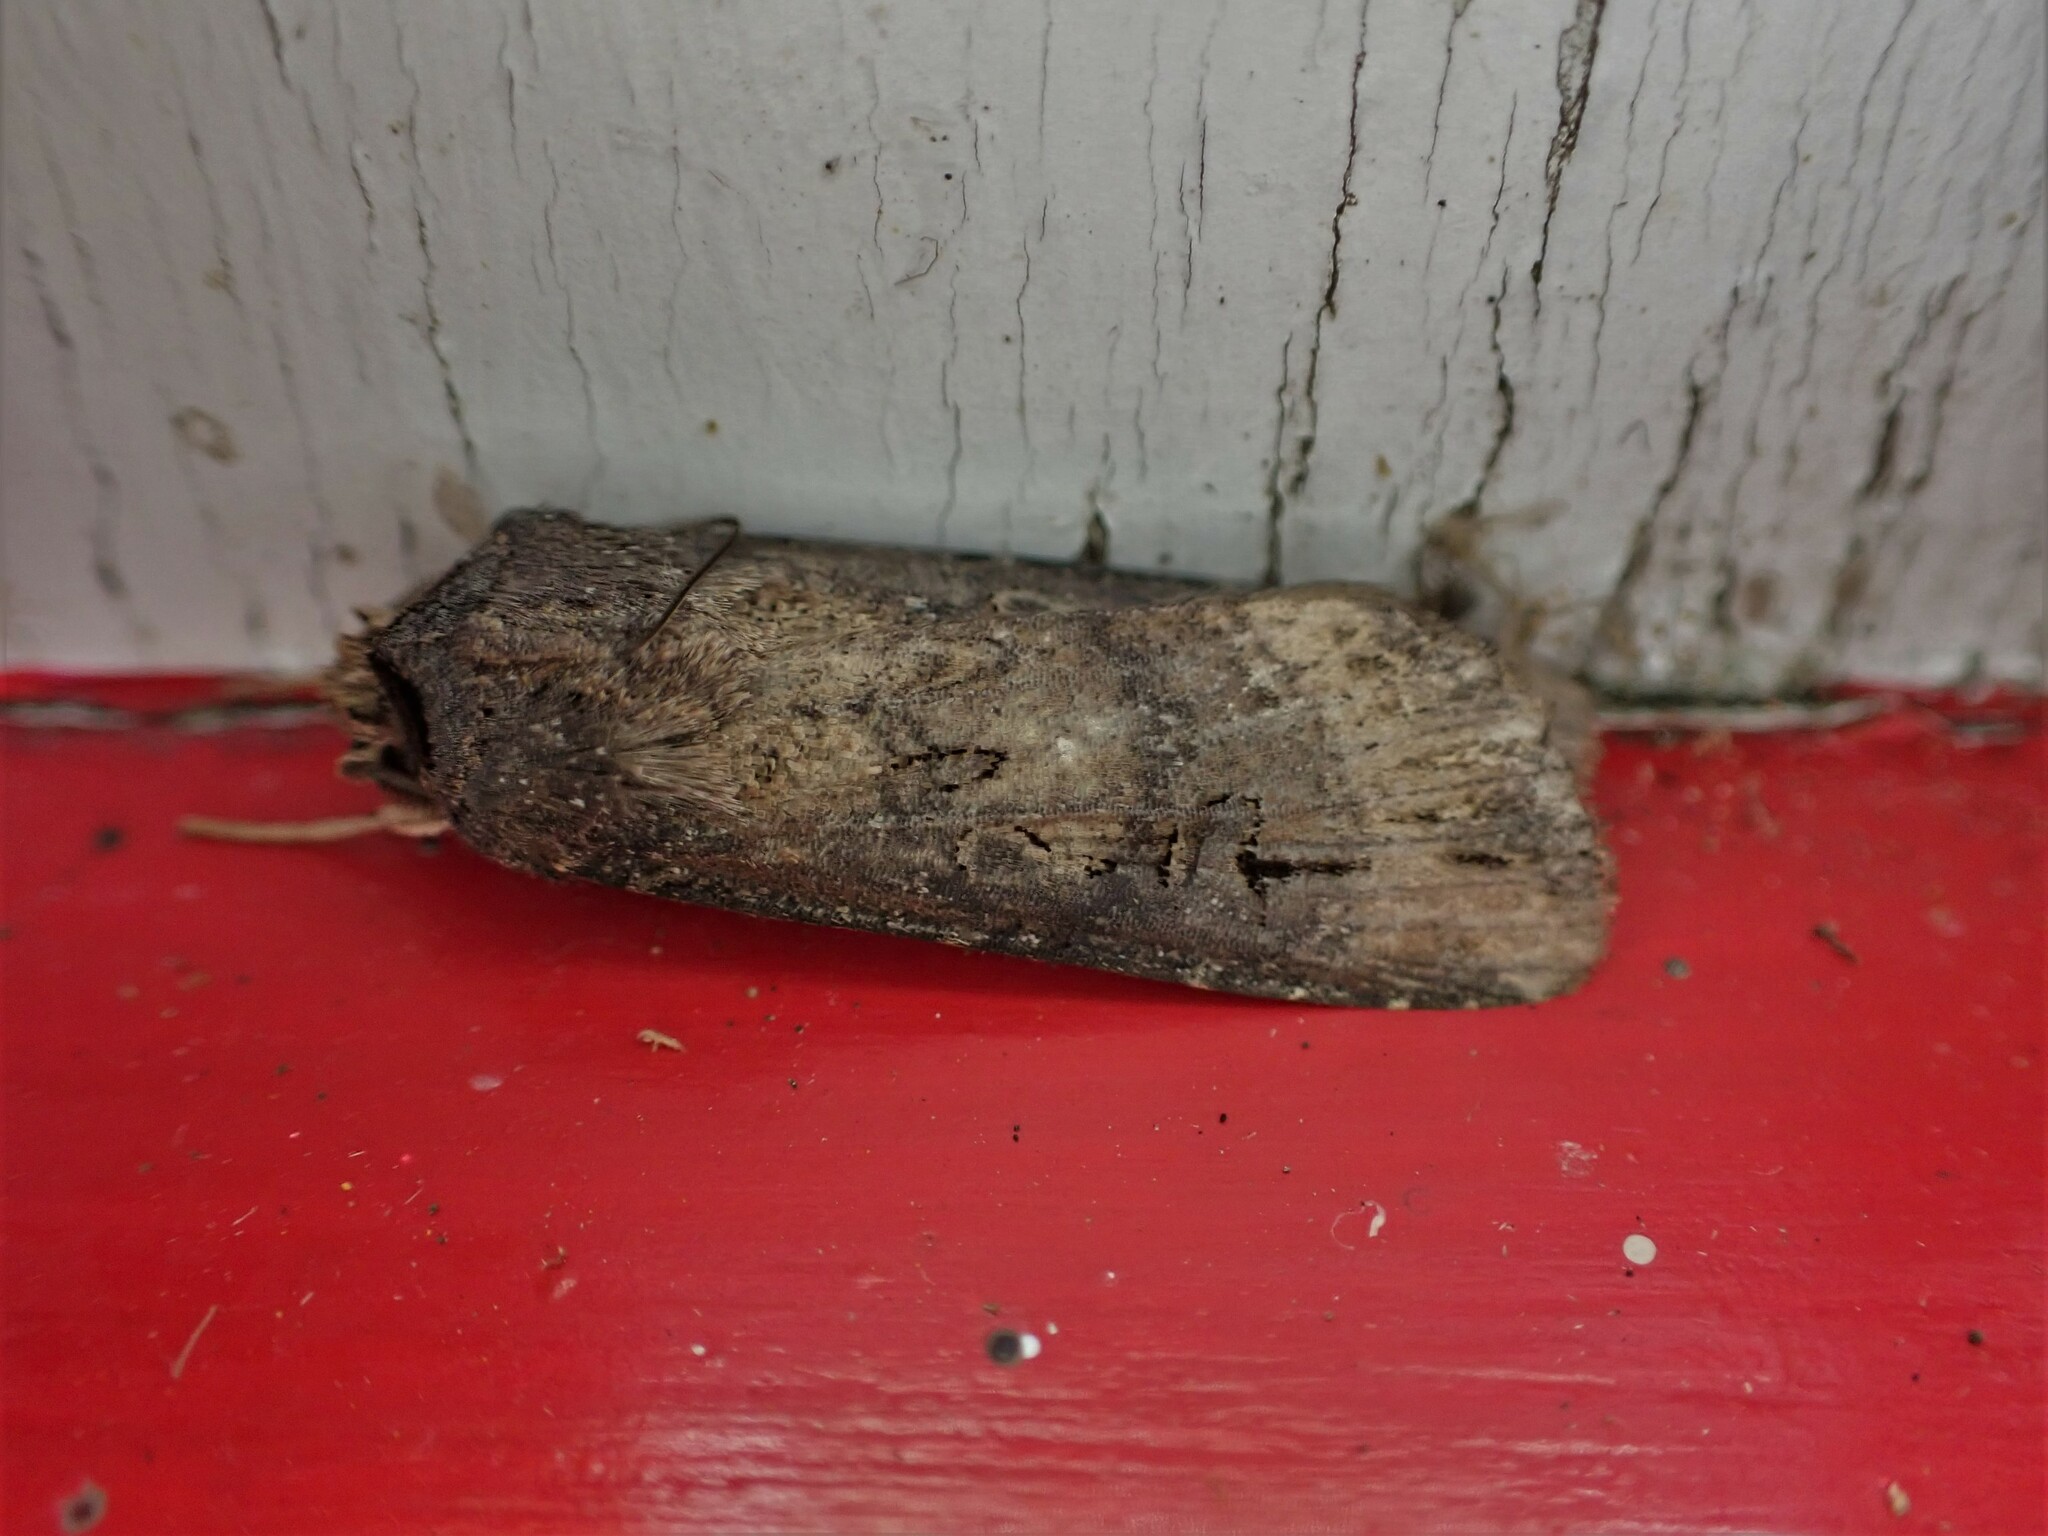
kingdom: Animalia
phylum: Arthropoda
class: Insecta
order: Lepidoptera
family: Noctuidae
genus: Agrotis
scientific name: Agrotis ipsilon
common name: Dark sword-grass
